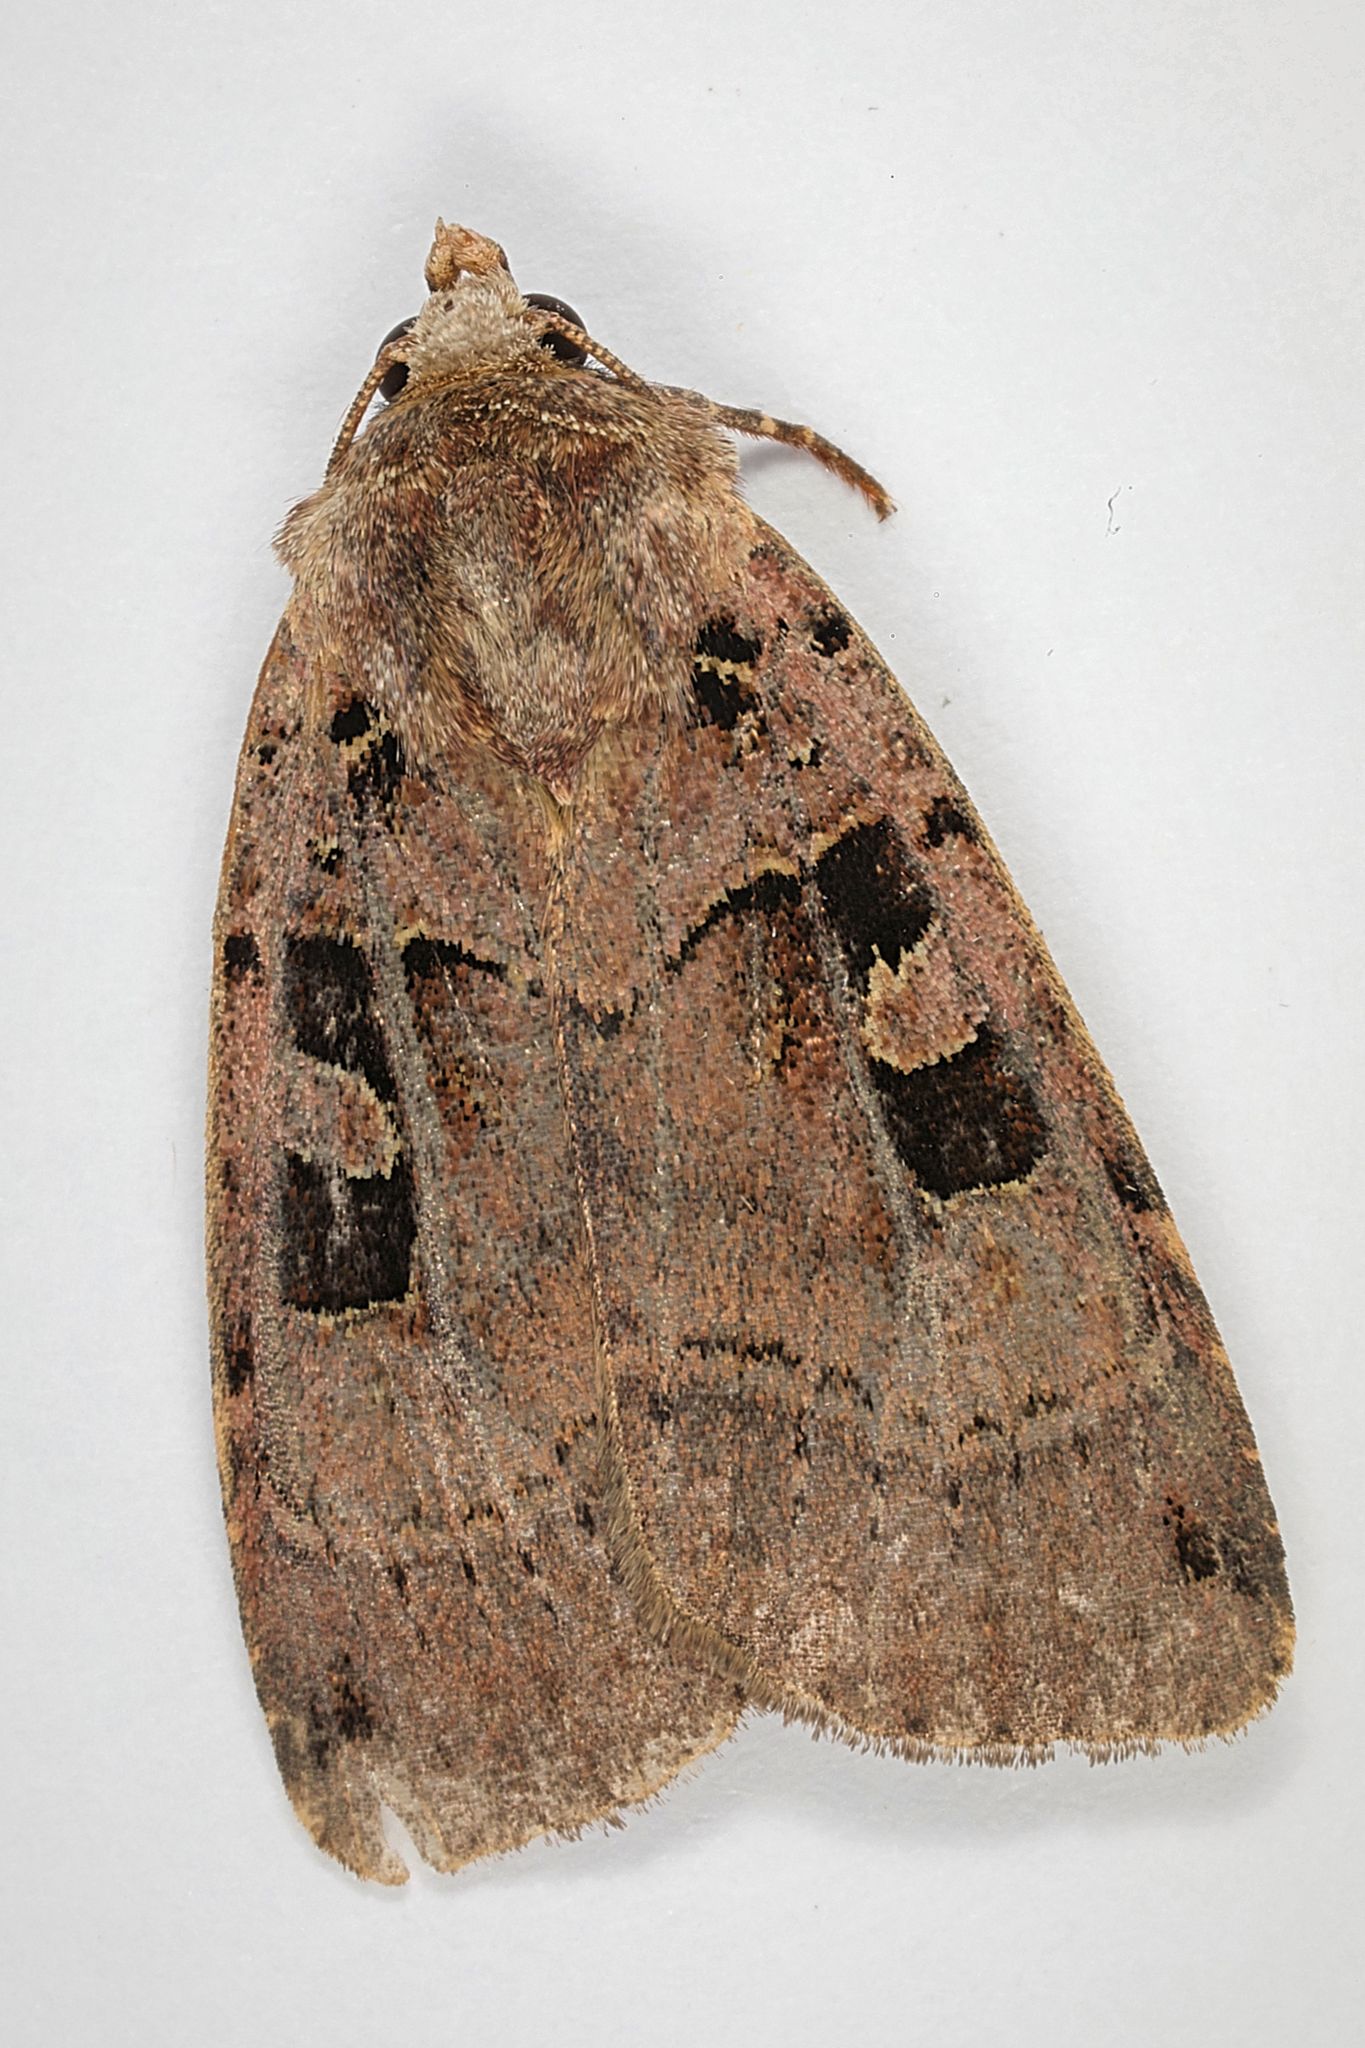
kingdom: Animalia
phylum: Arthropoda
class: Insecta
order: Lepidoptera
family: Noctuidae
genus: Xestia
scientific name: Xestia triangulum
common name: Double square-spot
